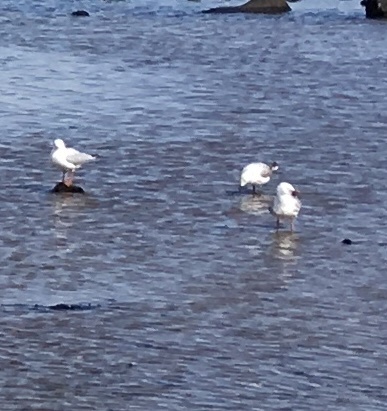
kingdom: Animalia
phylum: Chordata
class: Aves
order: Charadriiformes
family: Laridae
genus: Chroicocephalus
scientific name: Chroicocephalus novaehollandiae
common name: Silver gull
